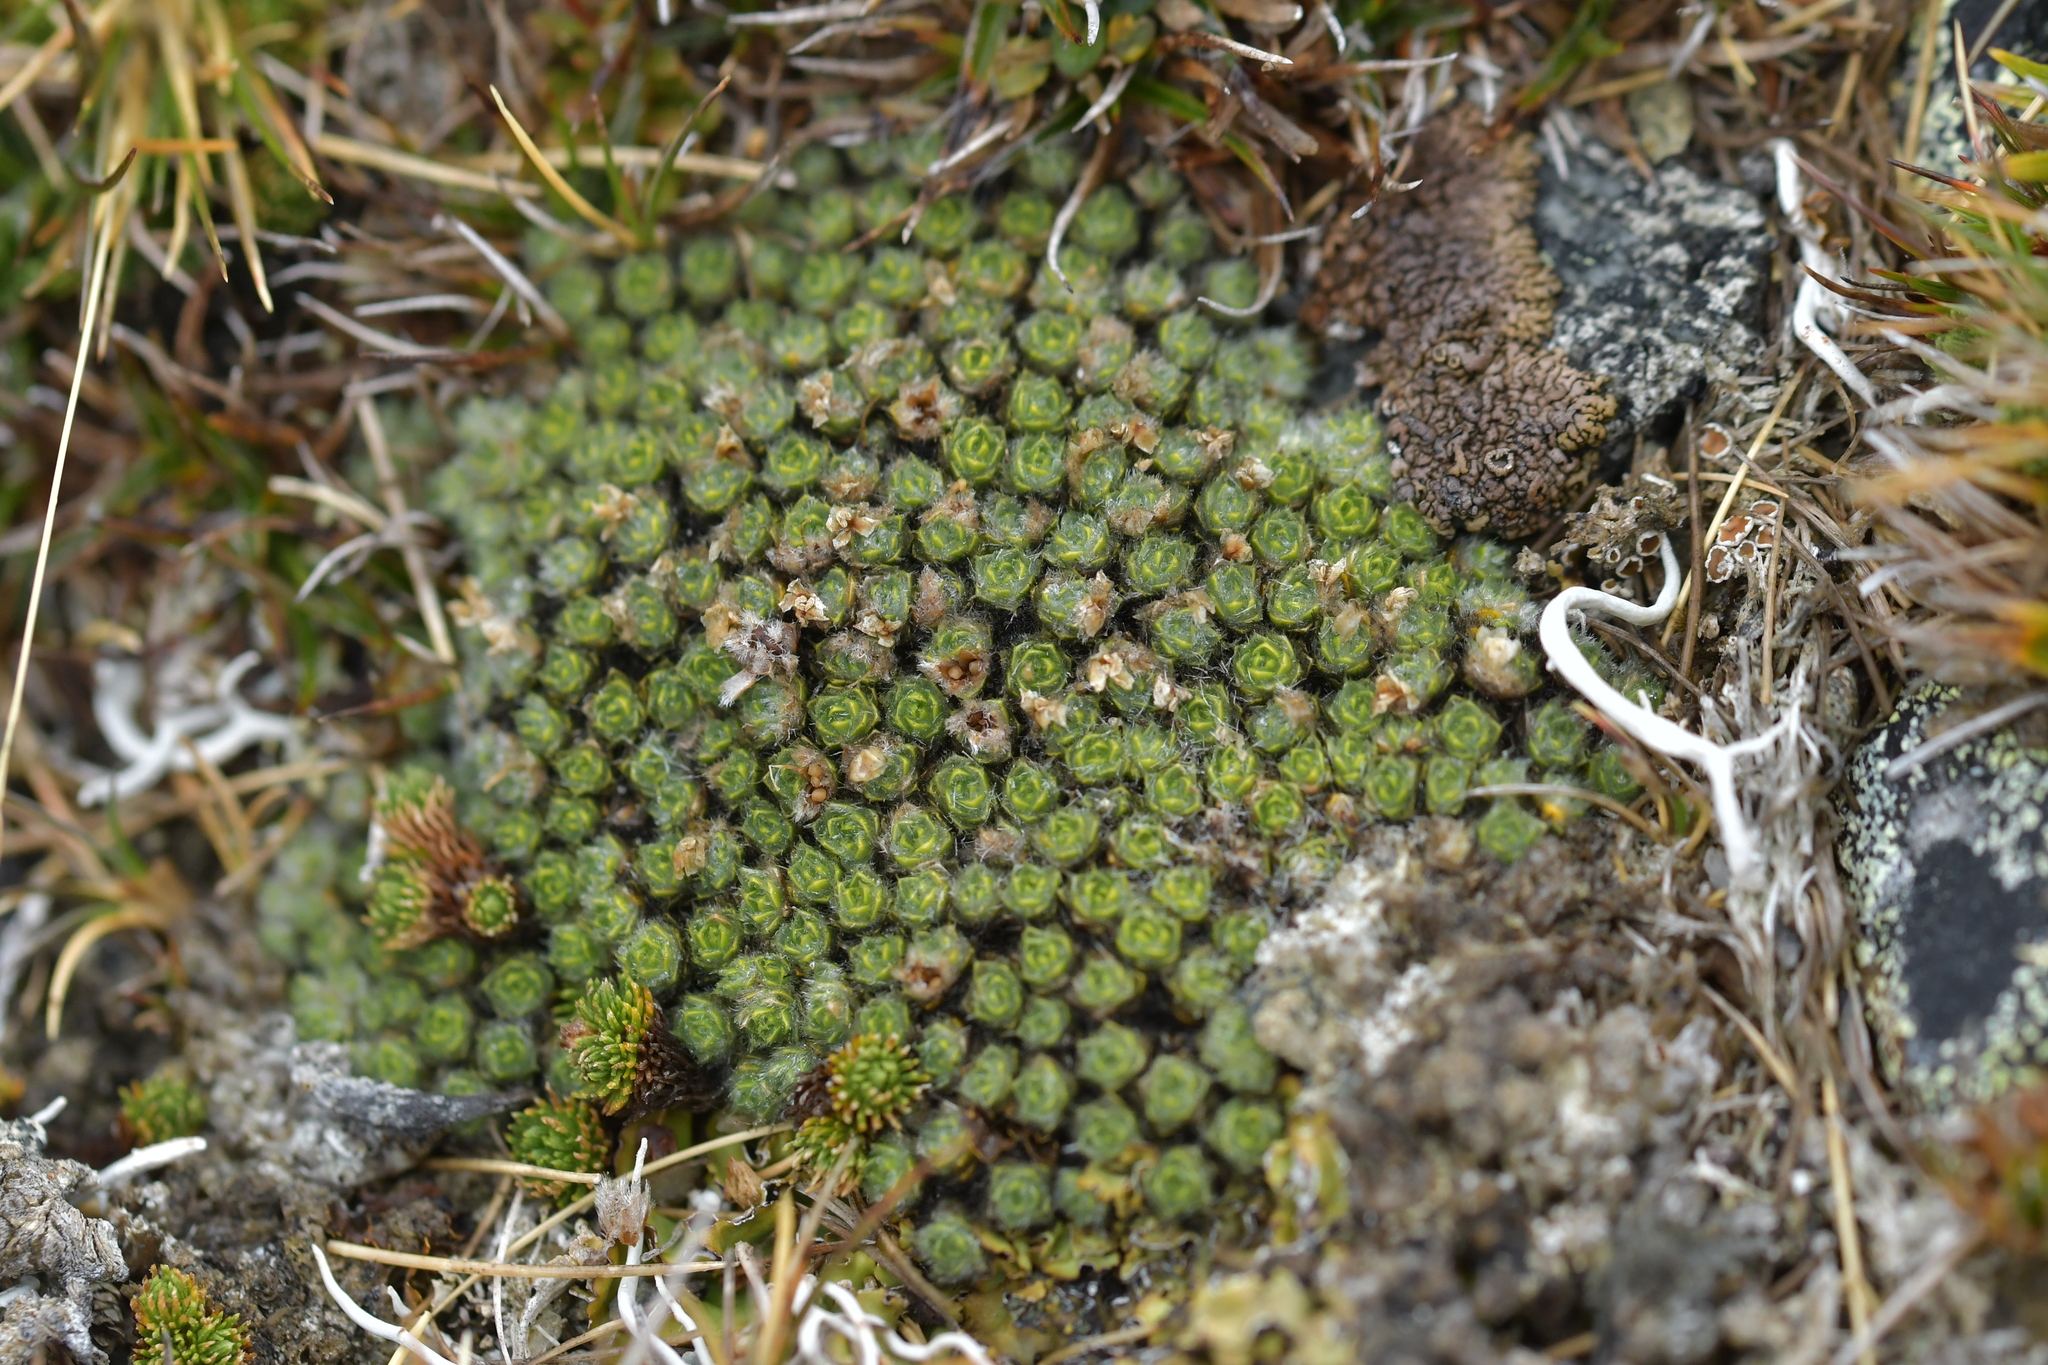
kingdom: Plantae
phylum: Tracheophyta
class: Magnoliopsida
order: Lamiales
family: Plantaginaceae
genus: Veronica
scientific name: Veronica thomsonii
